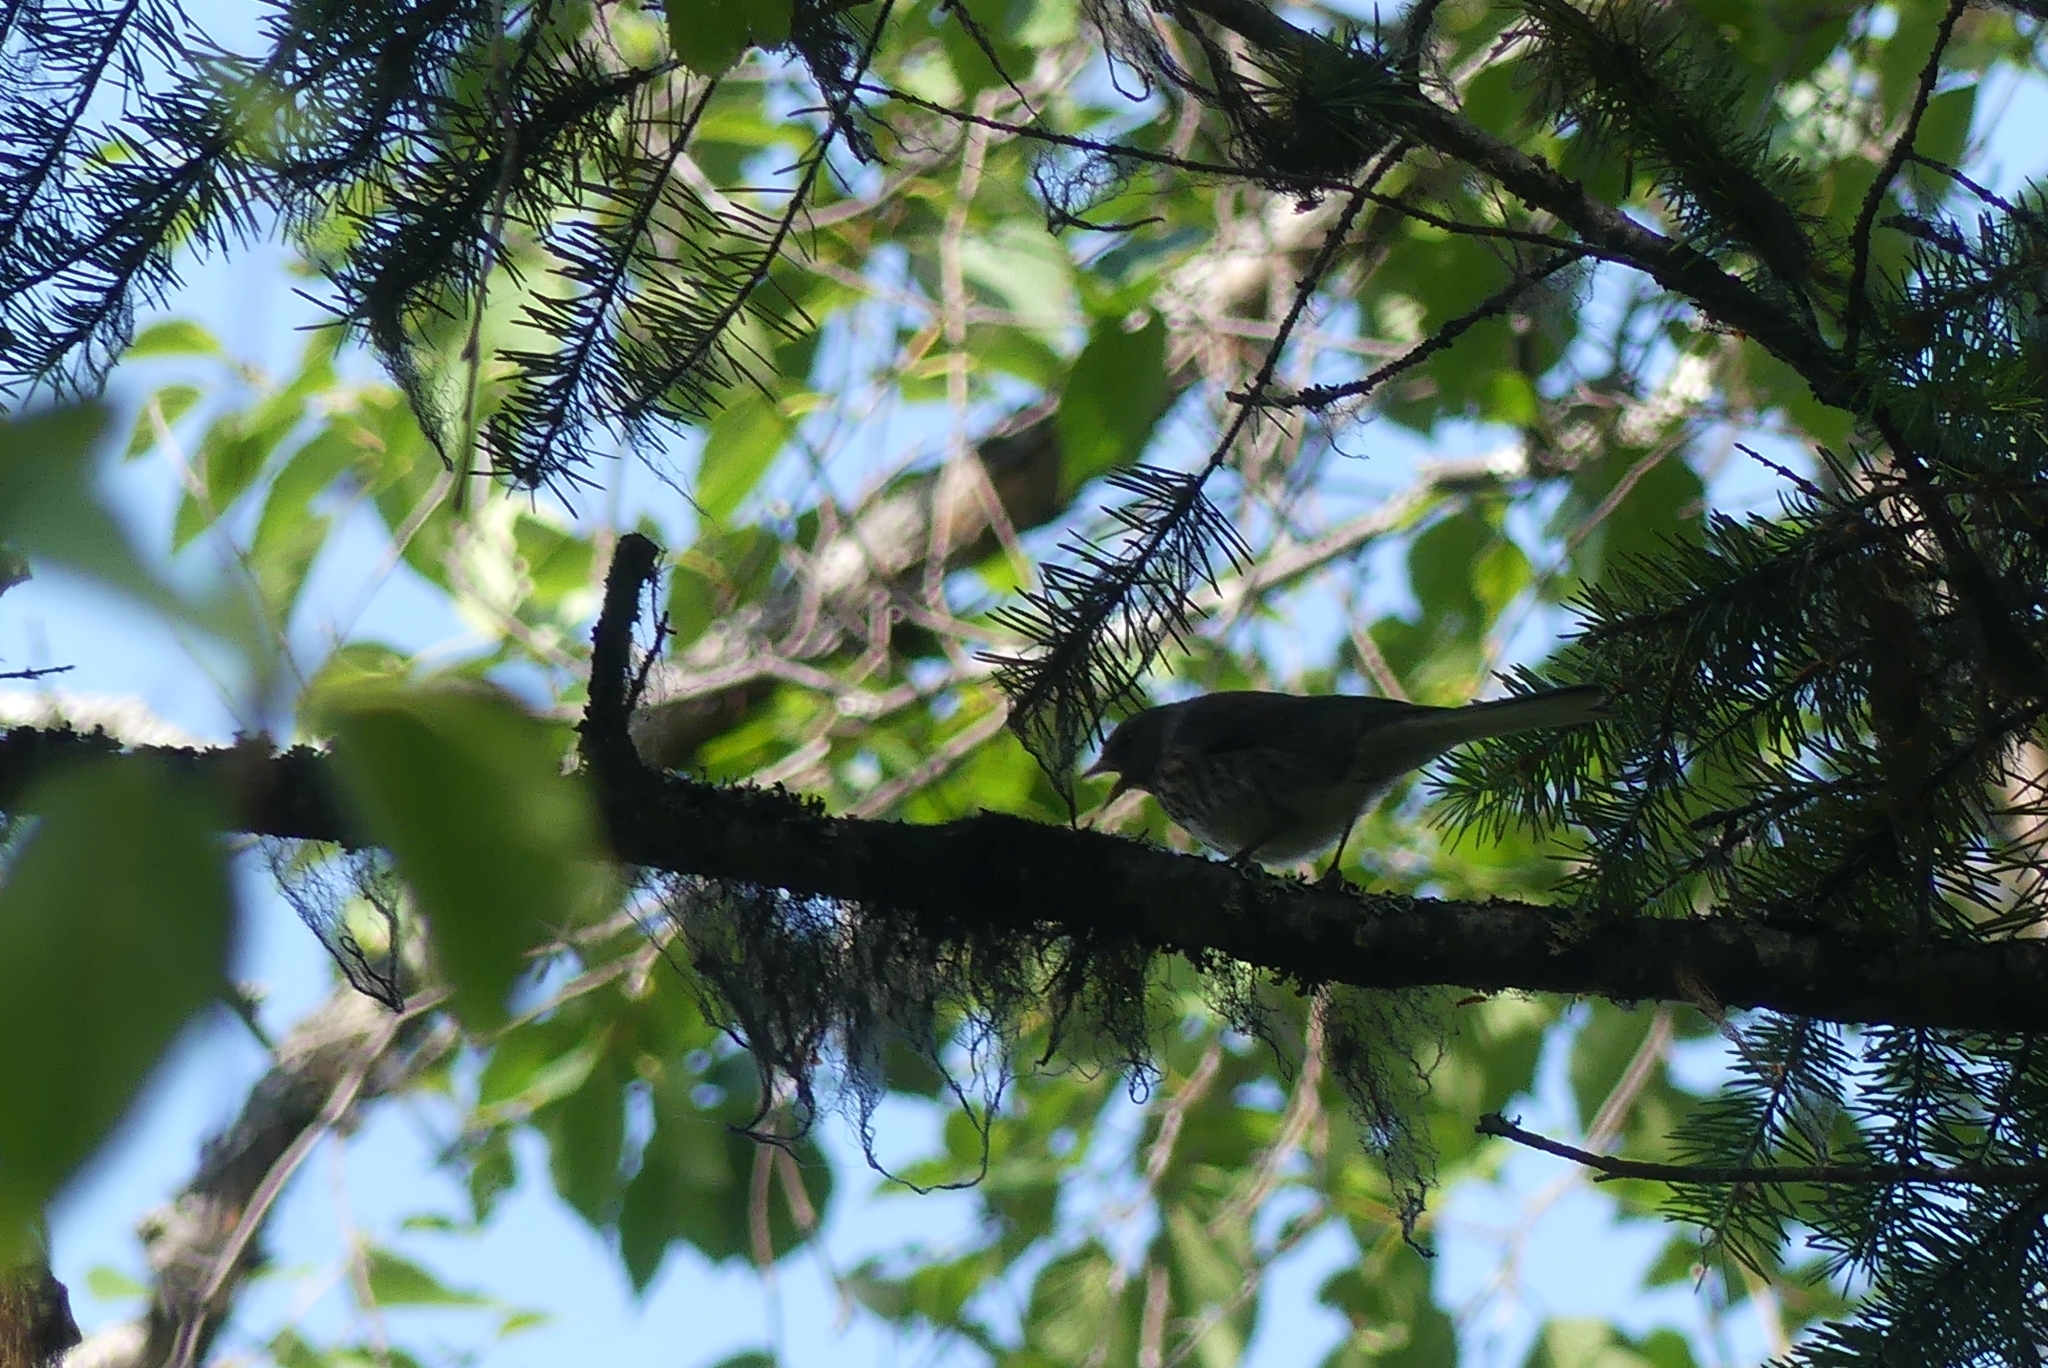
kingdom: Animalia
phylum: Chordata
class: Aves
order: Passeriformes
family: Passerellidae
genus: Junco
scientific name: Junco hyemalis
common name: Dark-eyed junco
